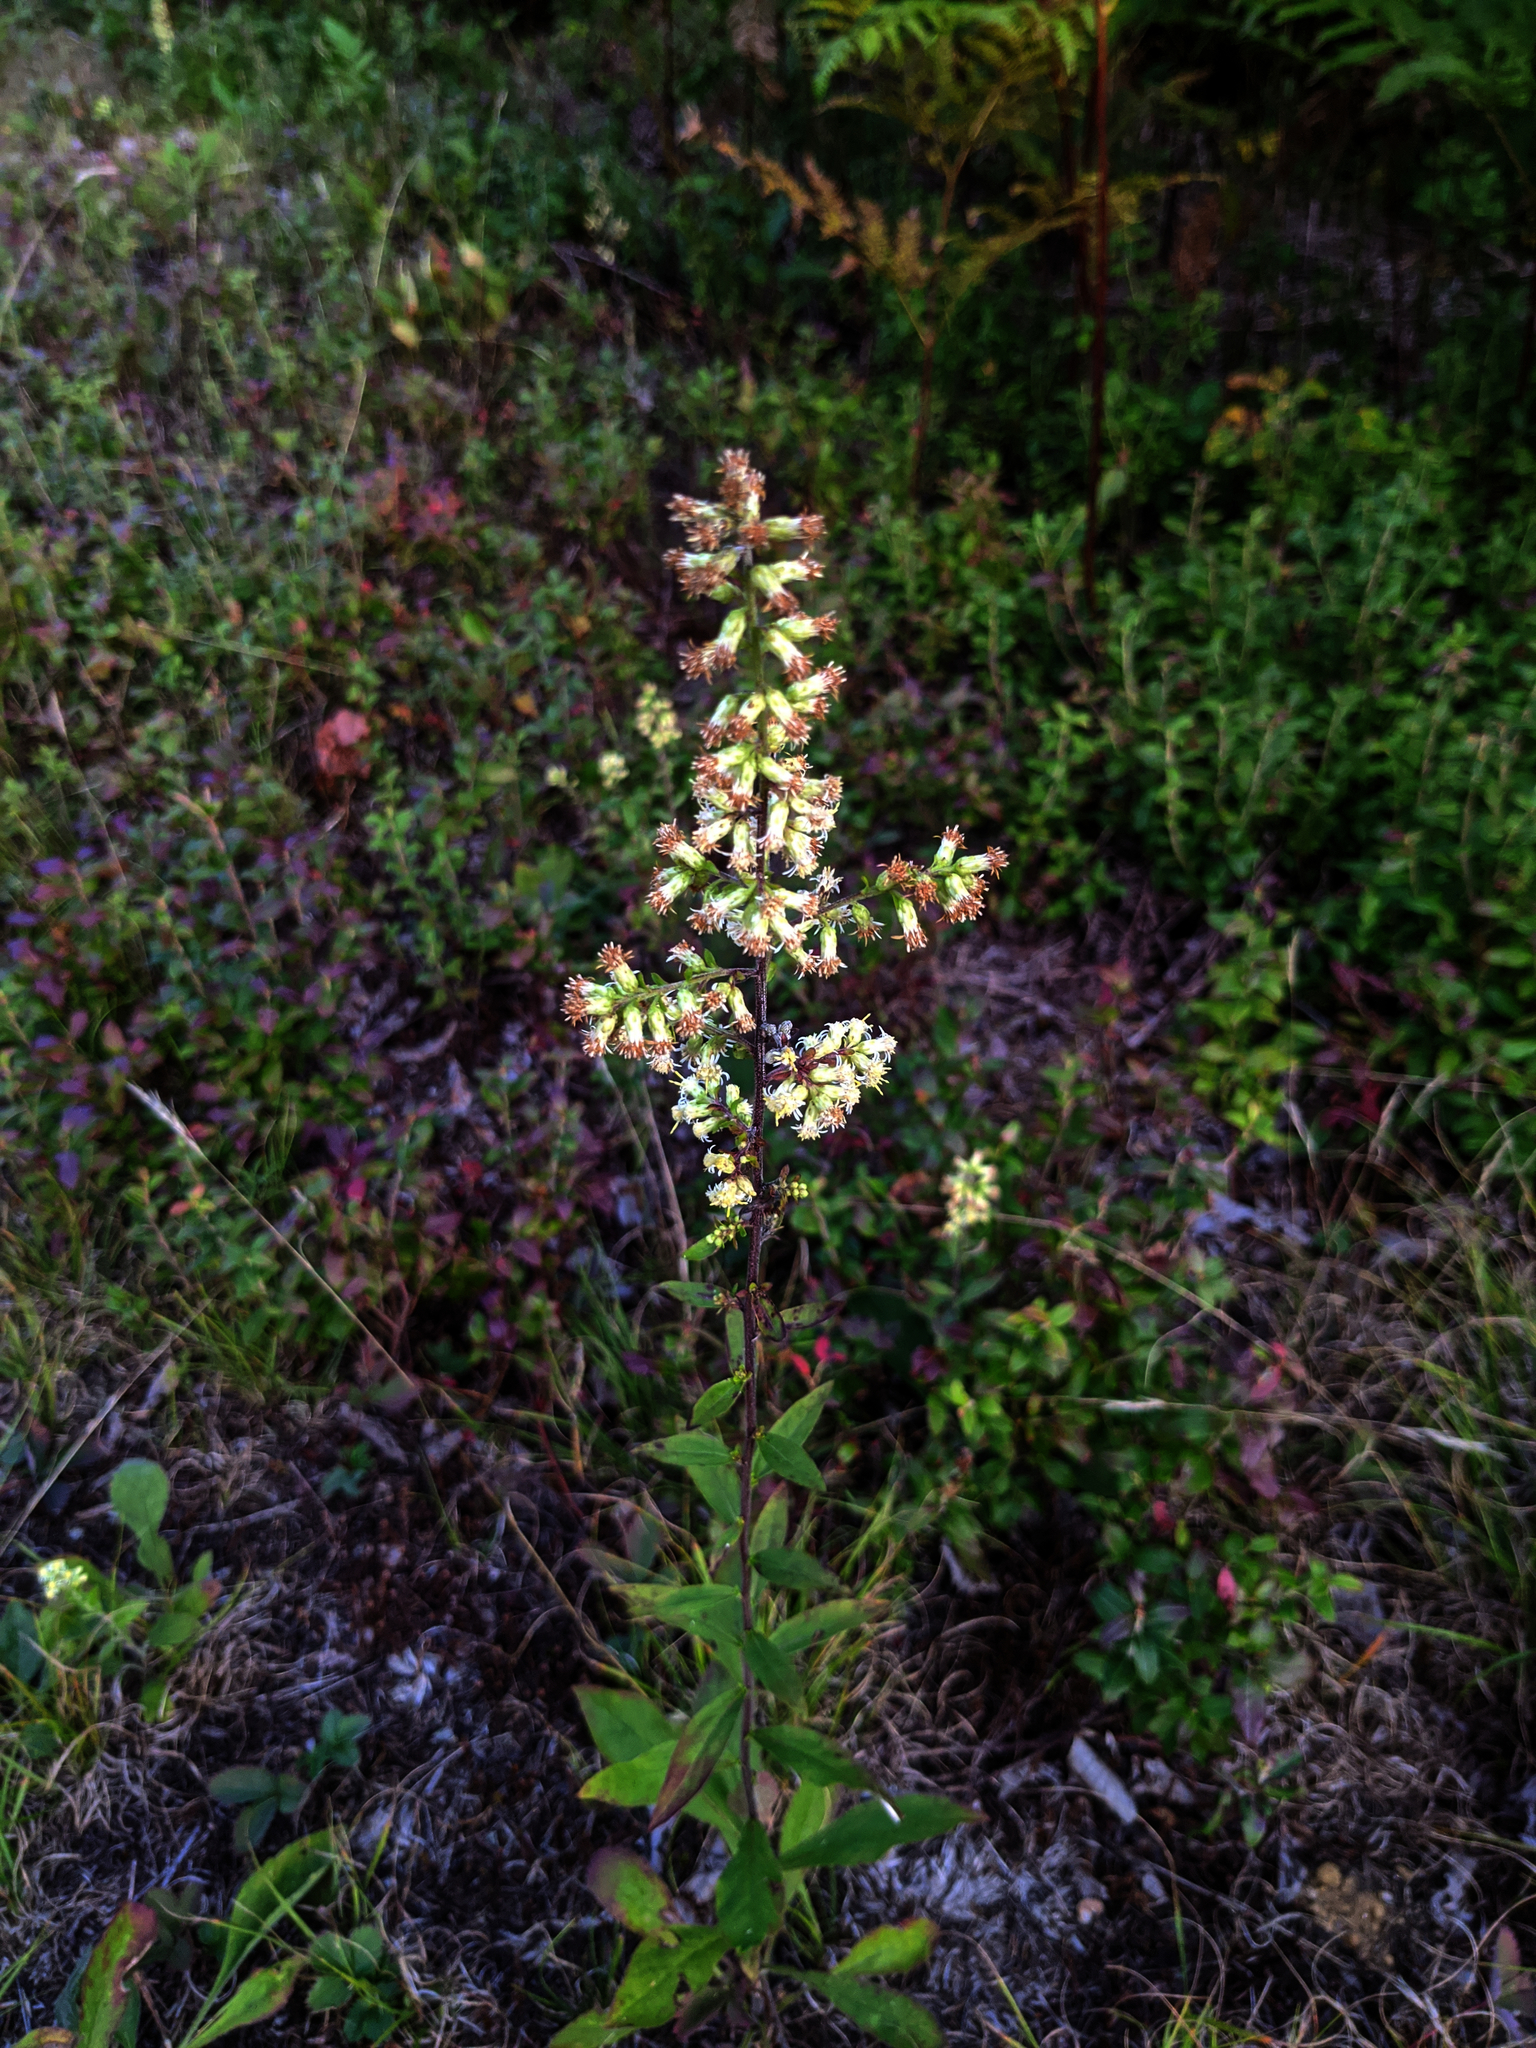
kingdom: Plantae
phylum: Tracheophyta
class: Magnoliopsida
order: Asterales
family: Asteraceae
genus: Solidago
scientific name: Solidago bicolor
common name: Silverrod
